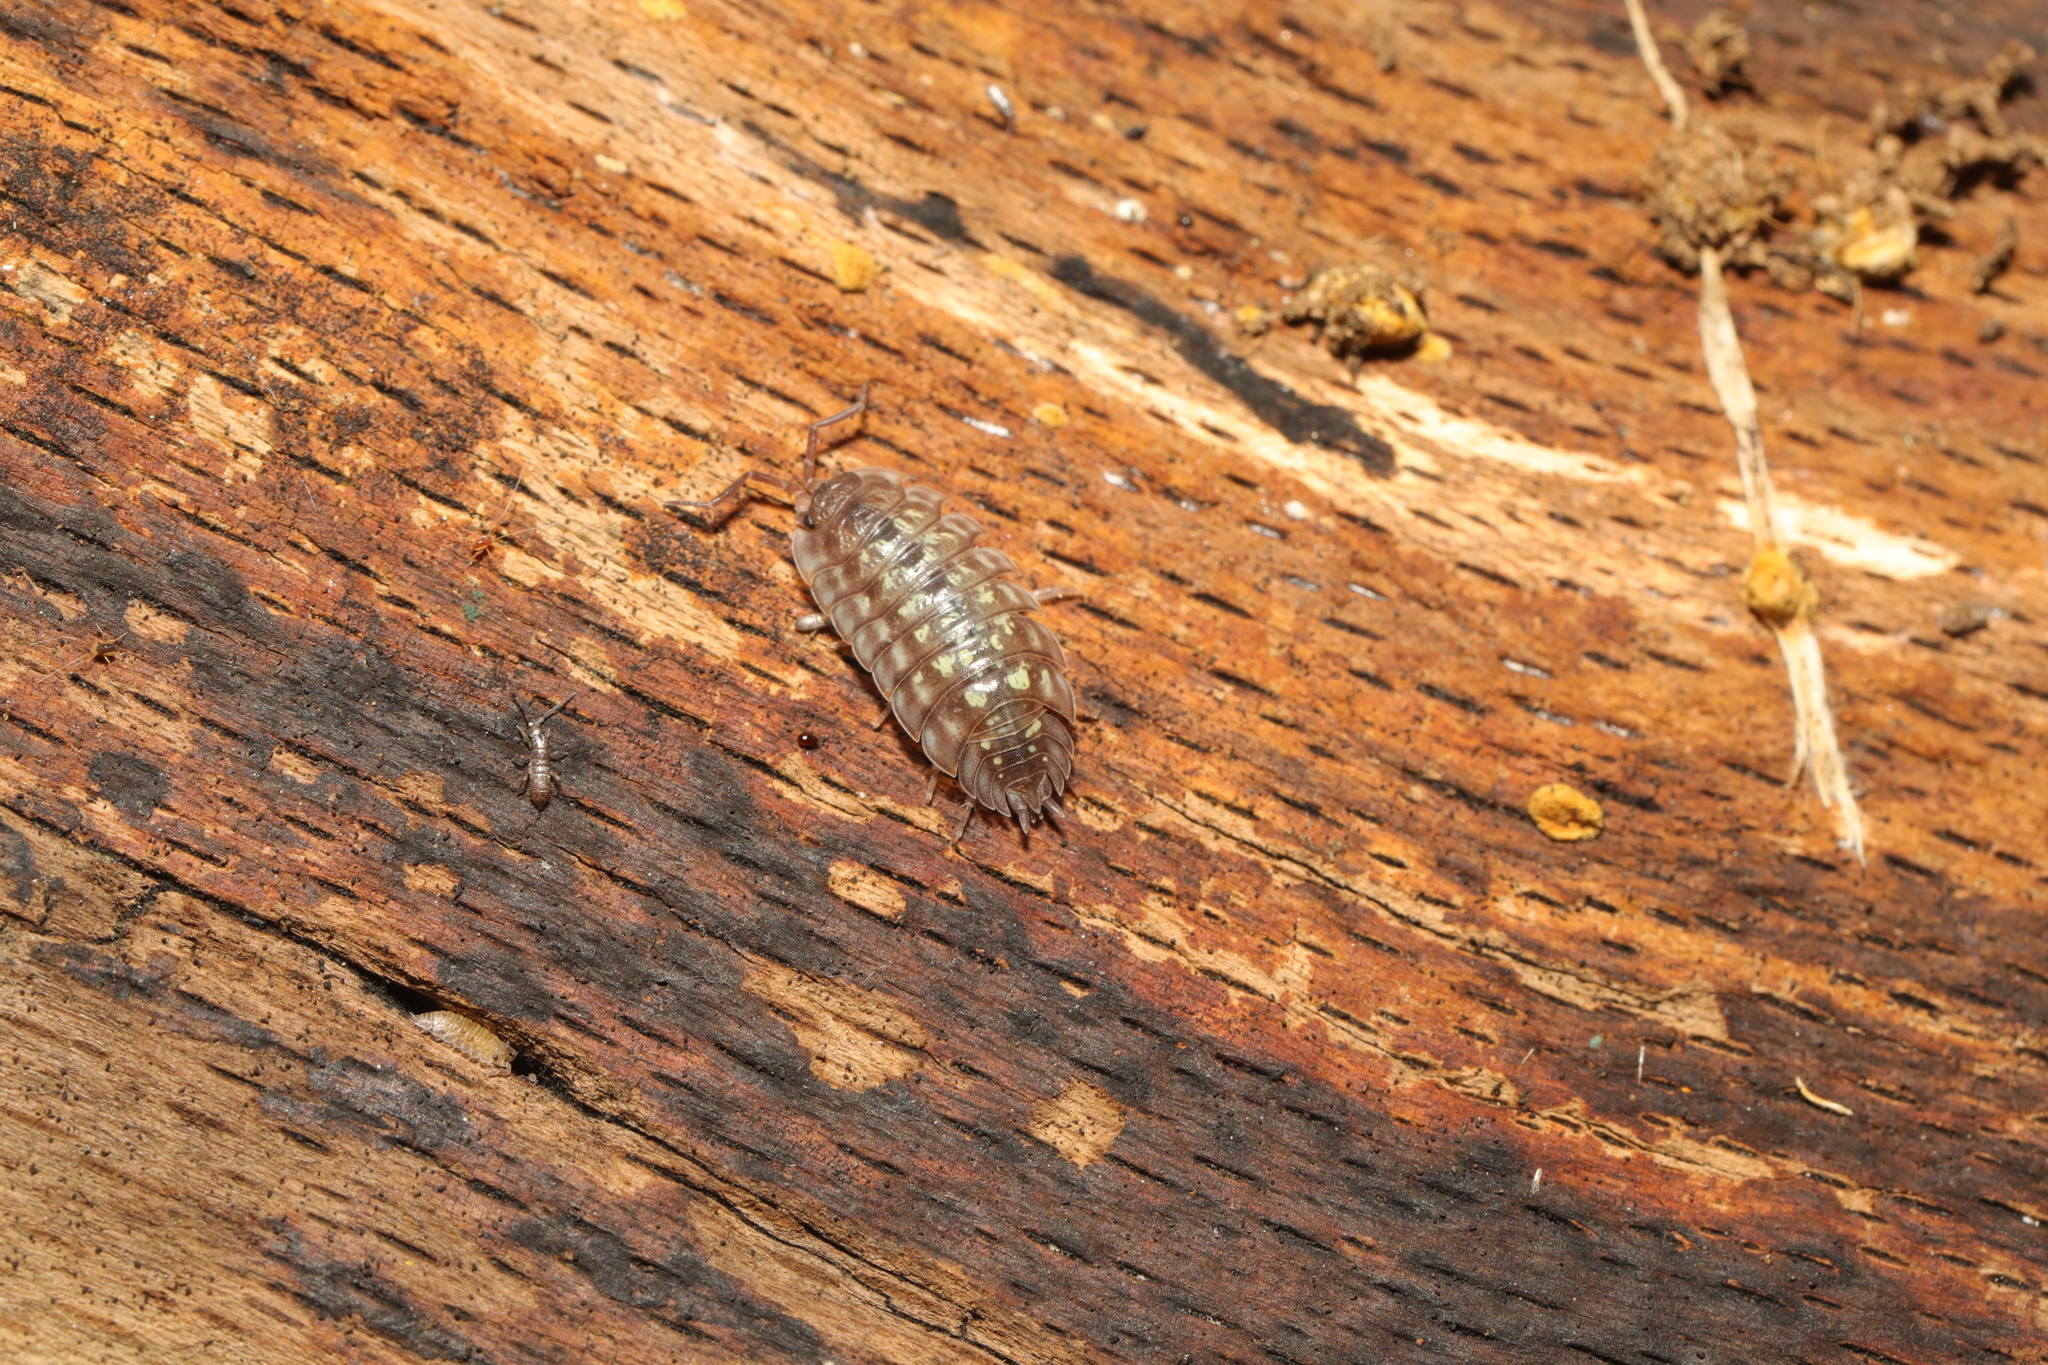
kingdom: Animalia
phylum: Arthropoda
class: Malacostraca
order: Isopoda
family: Oniscidae
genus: Oniscus
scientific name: Oniscus asellus
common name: Common shiny woodlouse
